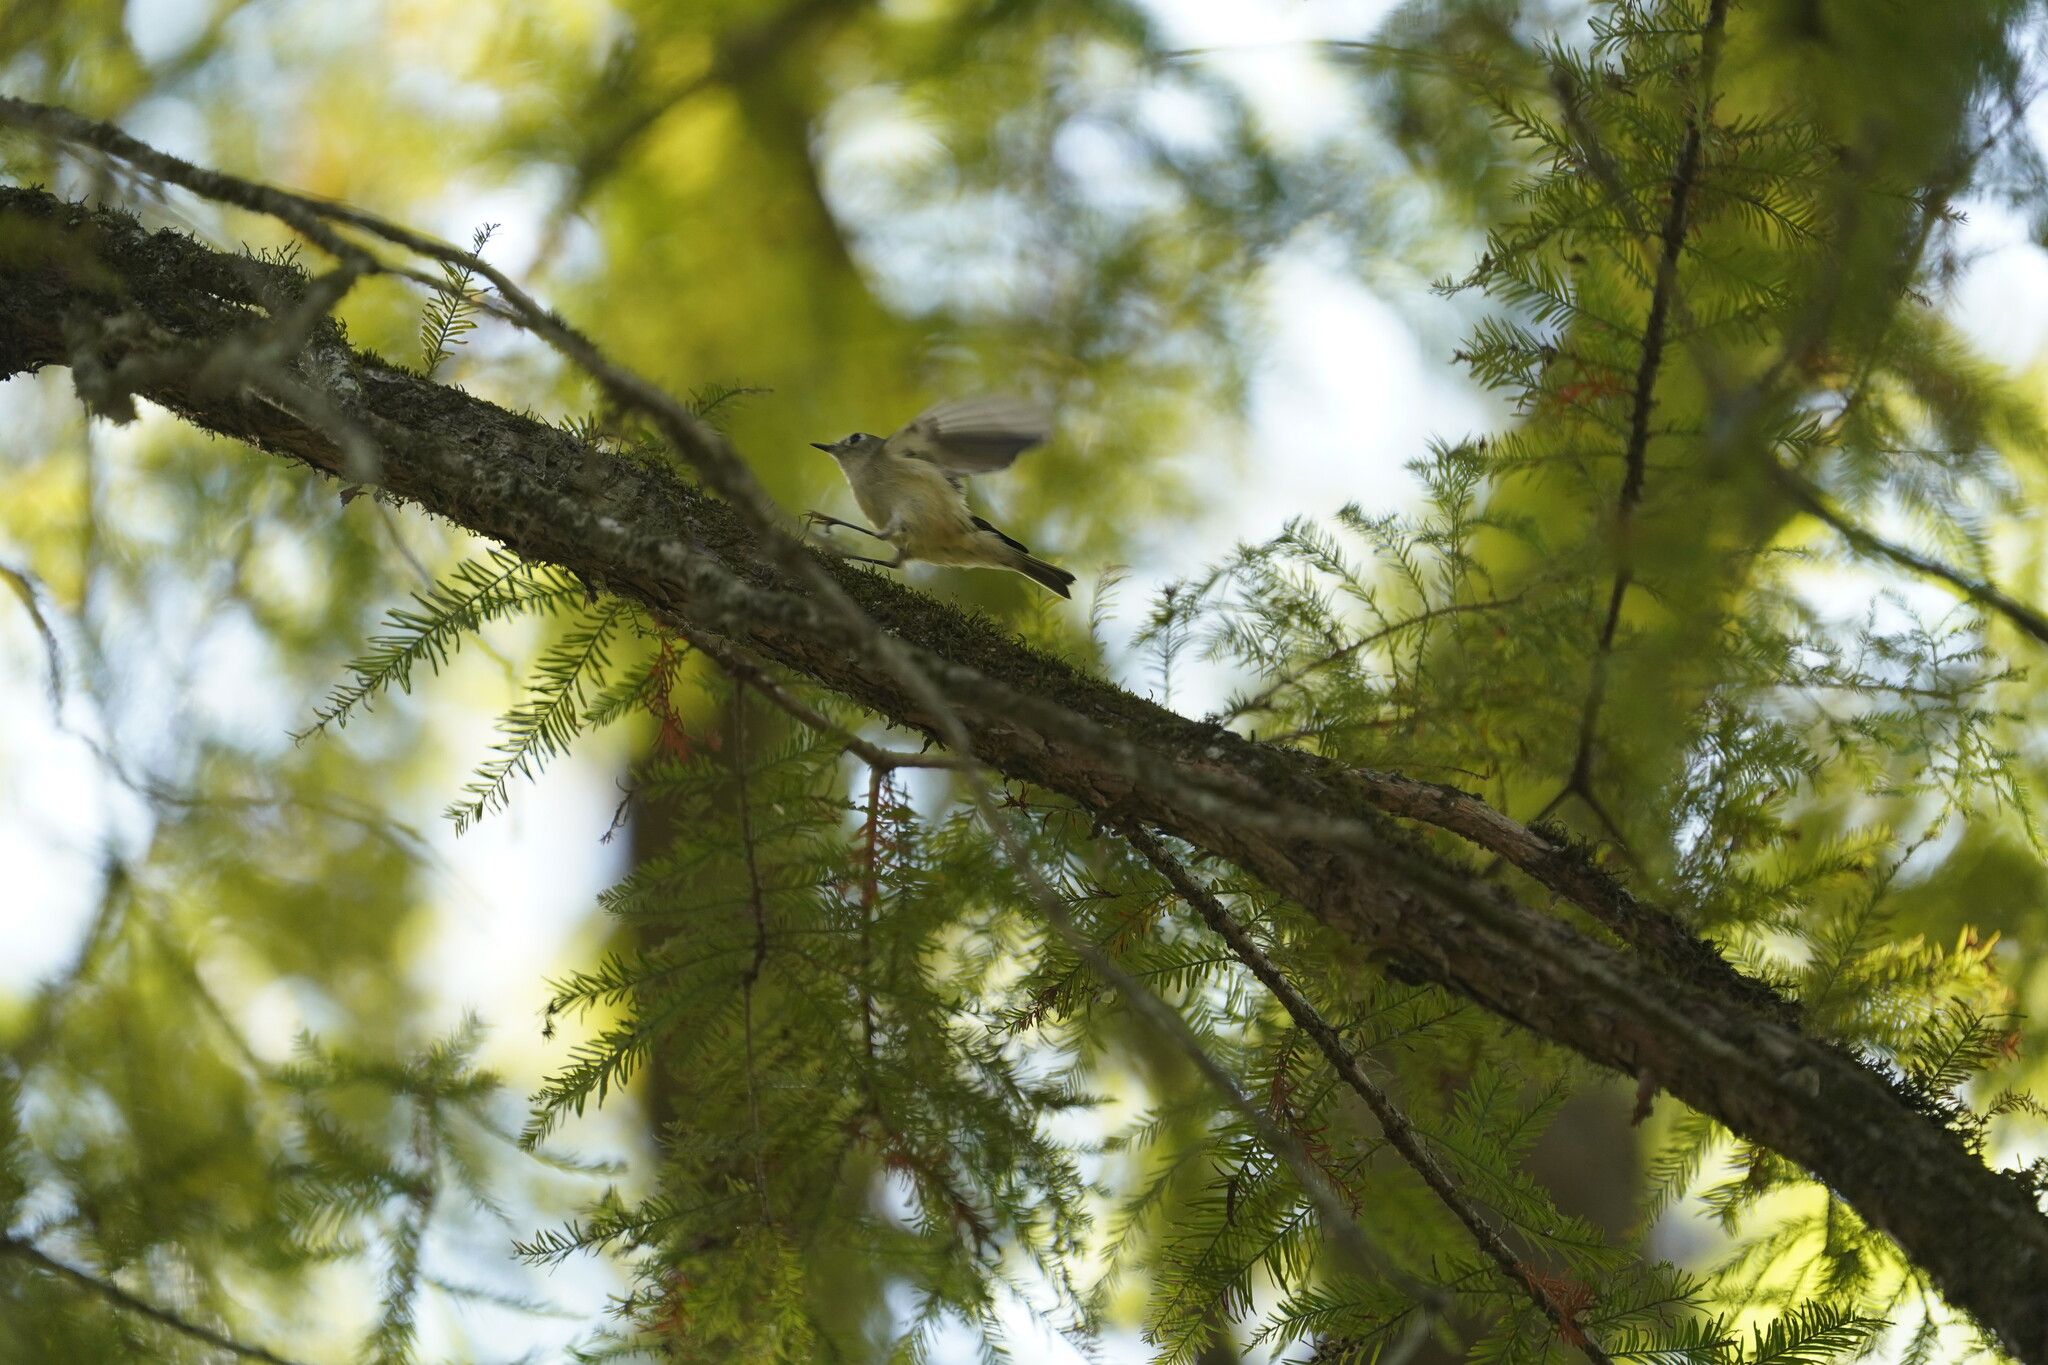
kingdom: Animalia
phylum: Chordata
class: Aves
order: Passeriformes
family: Regulidae
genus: Regulus
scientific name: Regulus calendula
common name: Ruby-crowned kinglet
